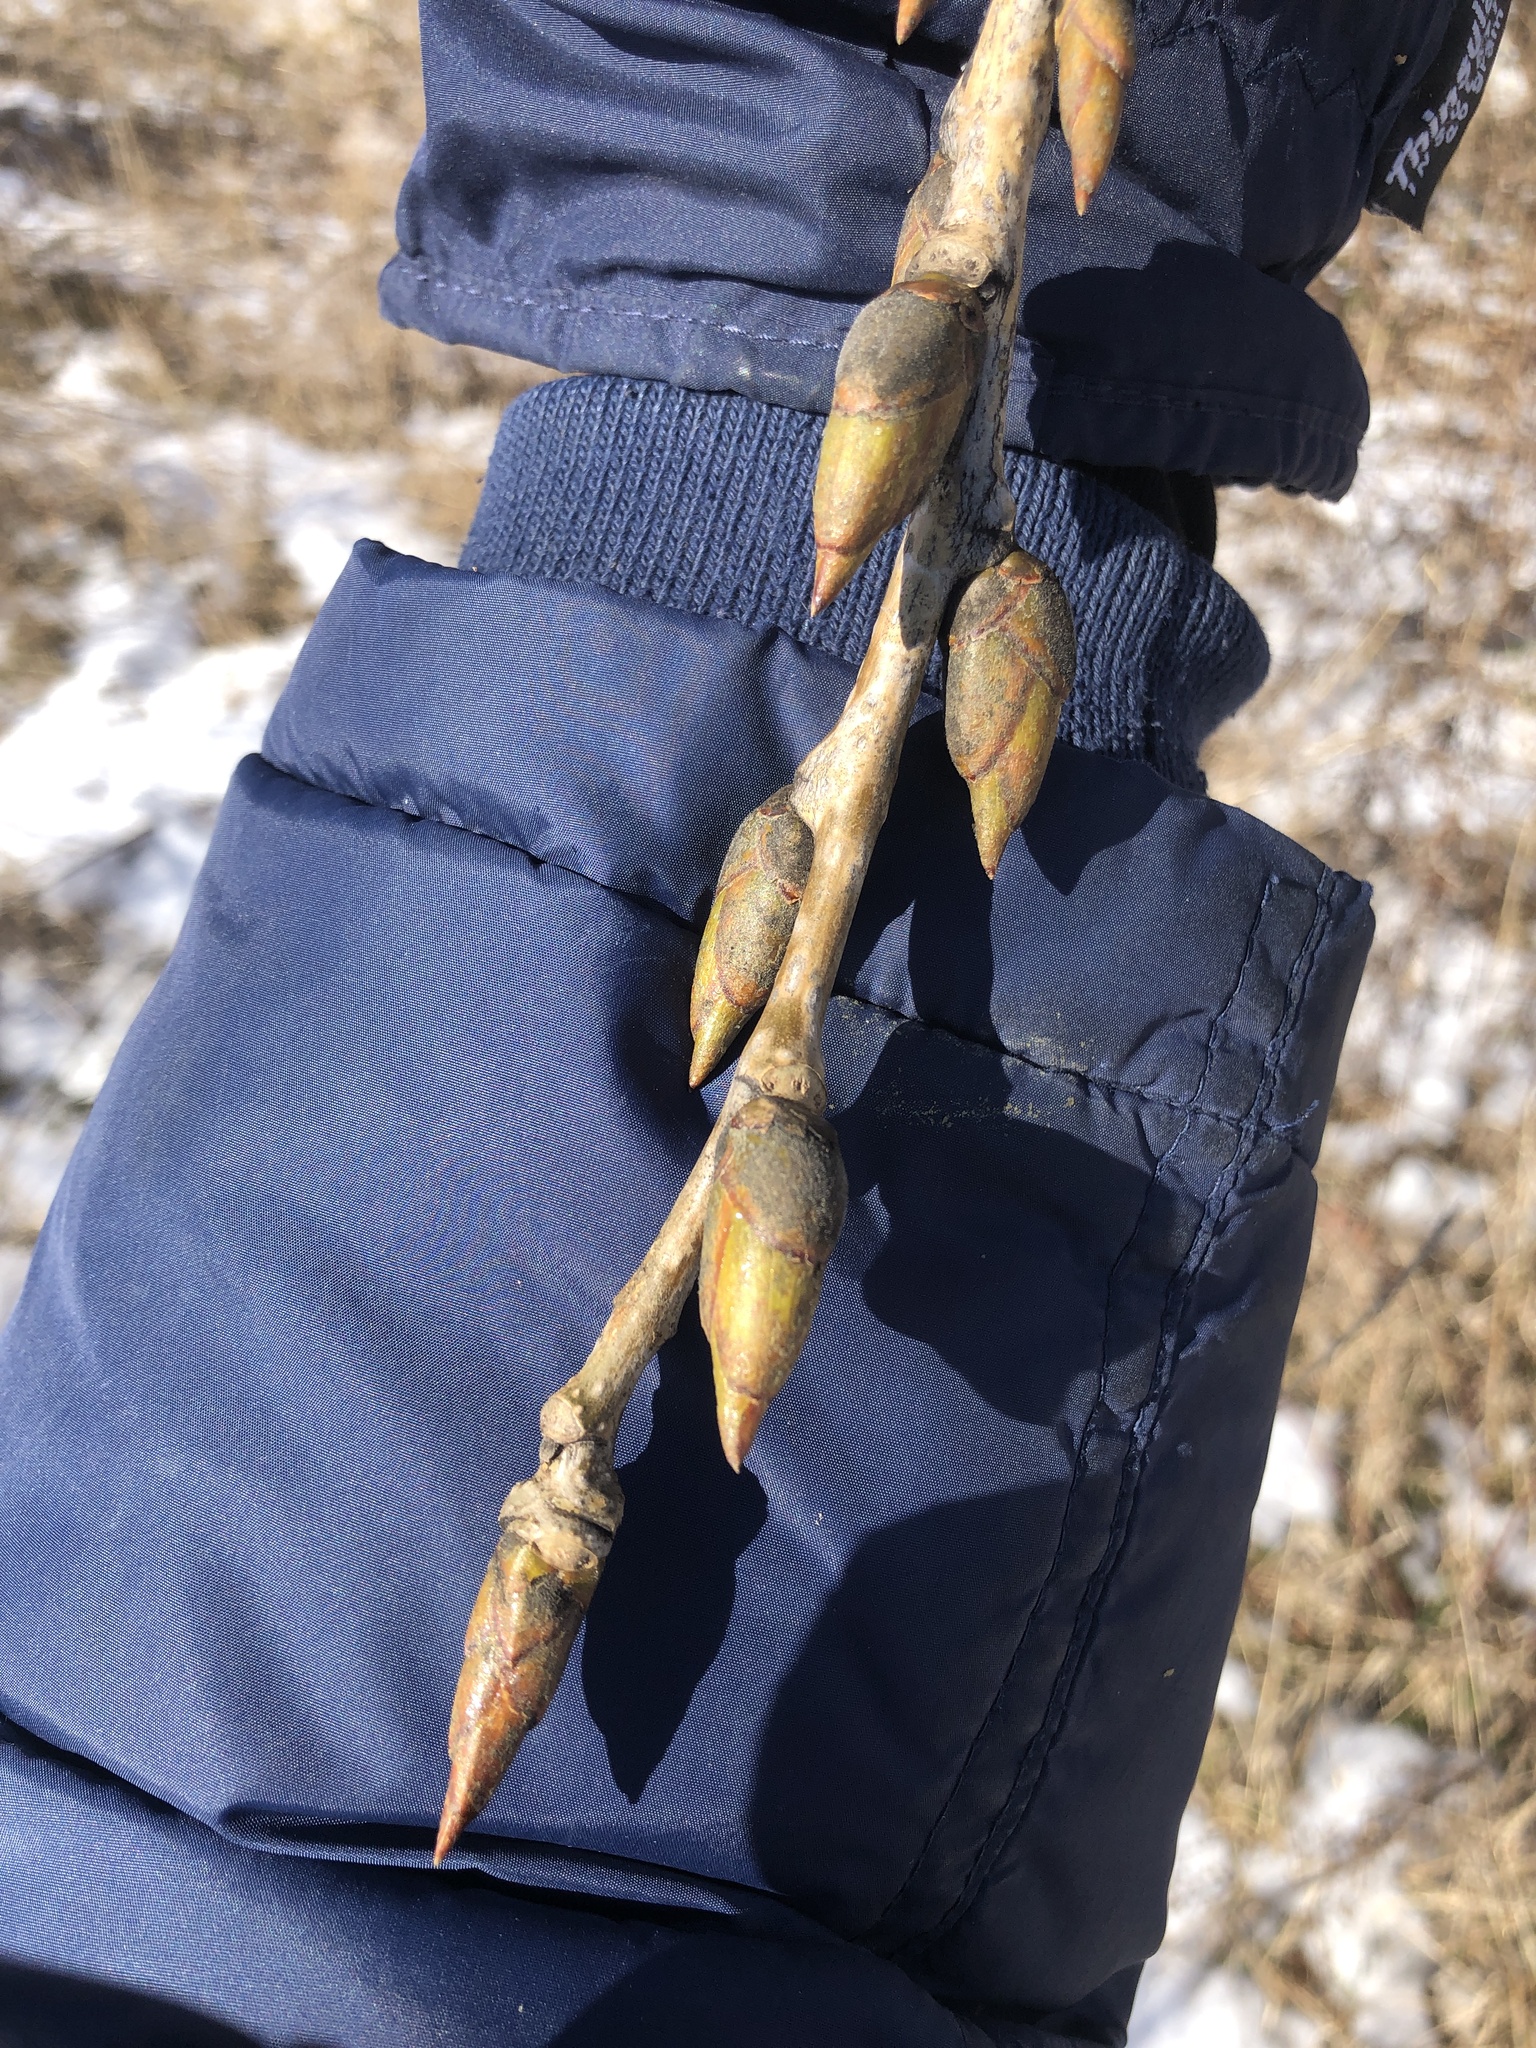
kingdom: Plantae
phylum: Tracheophyta
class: Magnoliopsida
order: Malpighiales
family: Salicaceae
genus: Populus
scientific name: Populus deltoides
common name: Eastern cottonwood
